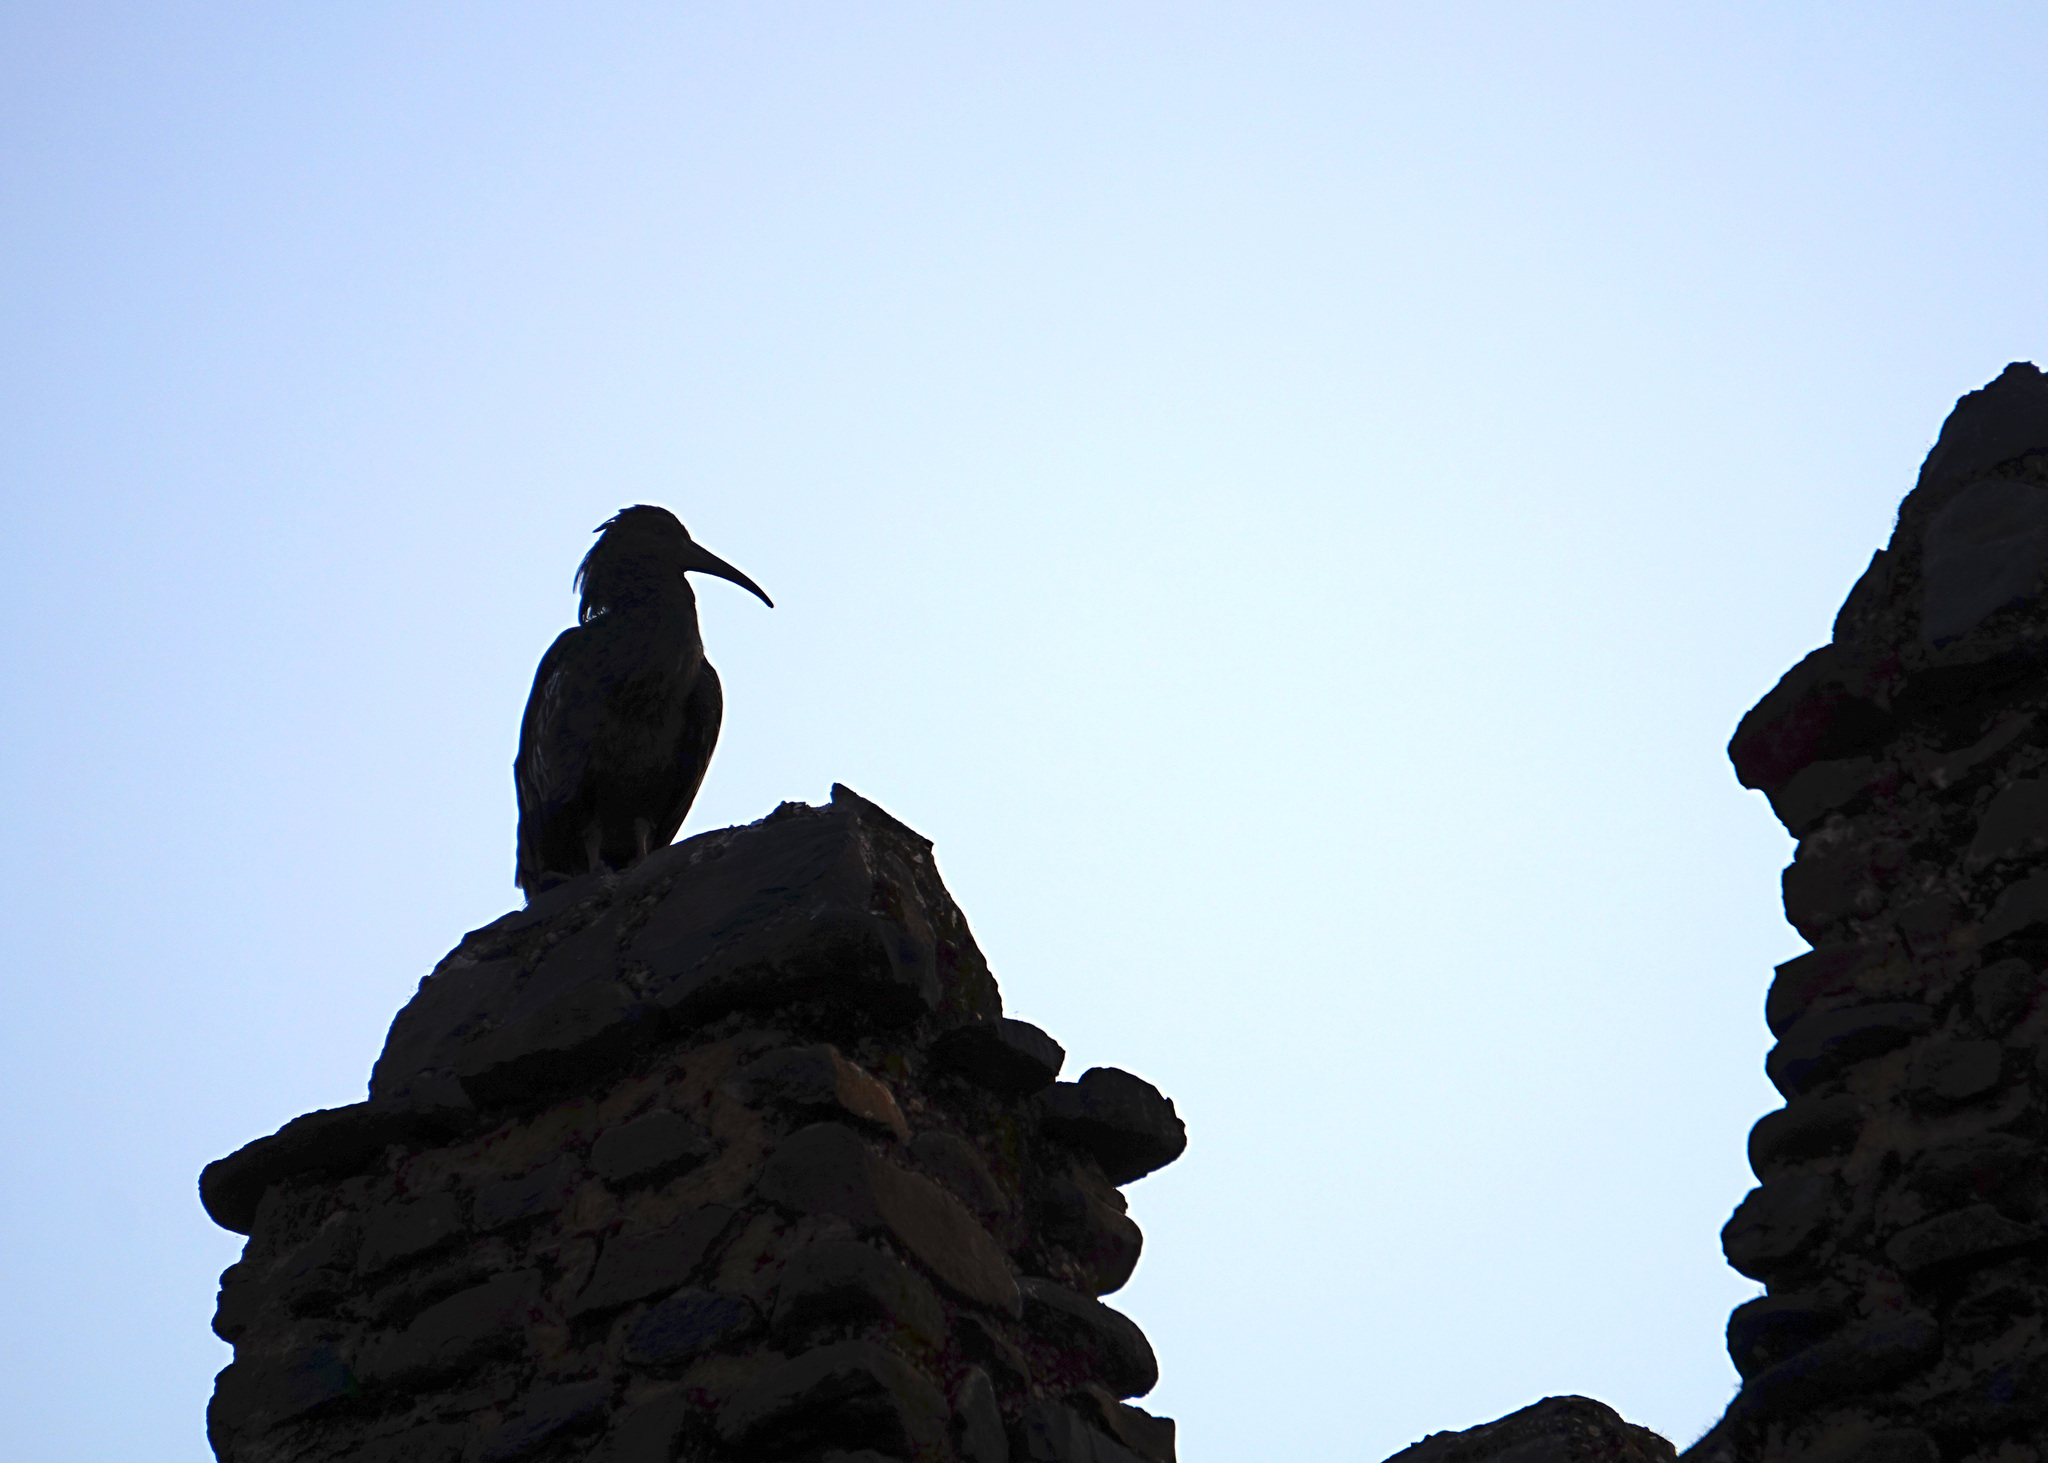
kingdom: Animalia
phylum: Chordata
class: Aves
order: Pelecaniformes
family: Threskiornithidae
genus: Bostrychia
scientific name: Bostrychia carunculata
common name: Wattled ibis
